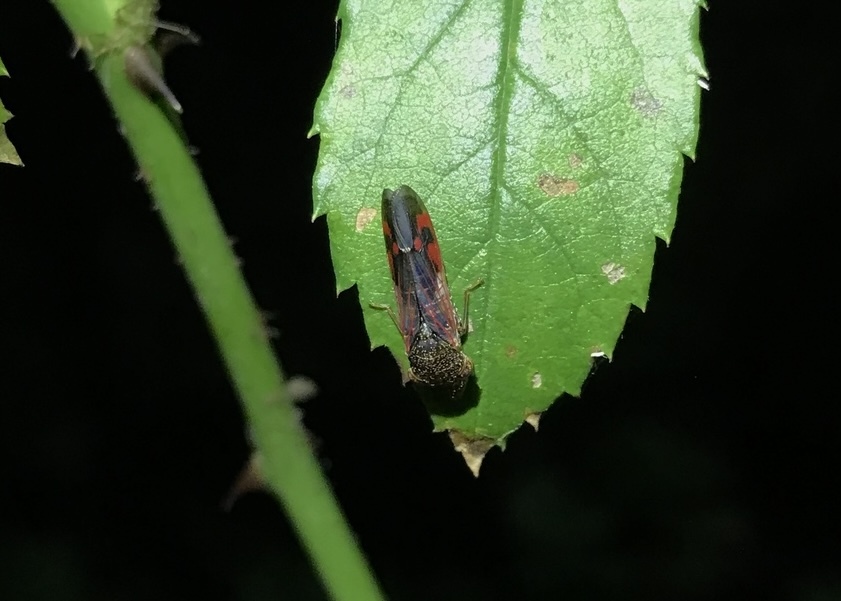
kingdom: Animalia
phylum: Arthropoda
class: Insecta
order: Hemiptera
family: Cicadellidae
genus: Homalodisca
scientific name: Homalodisca vitripennis
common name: Glassy-winged sharpshooter
